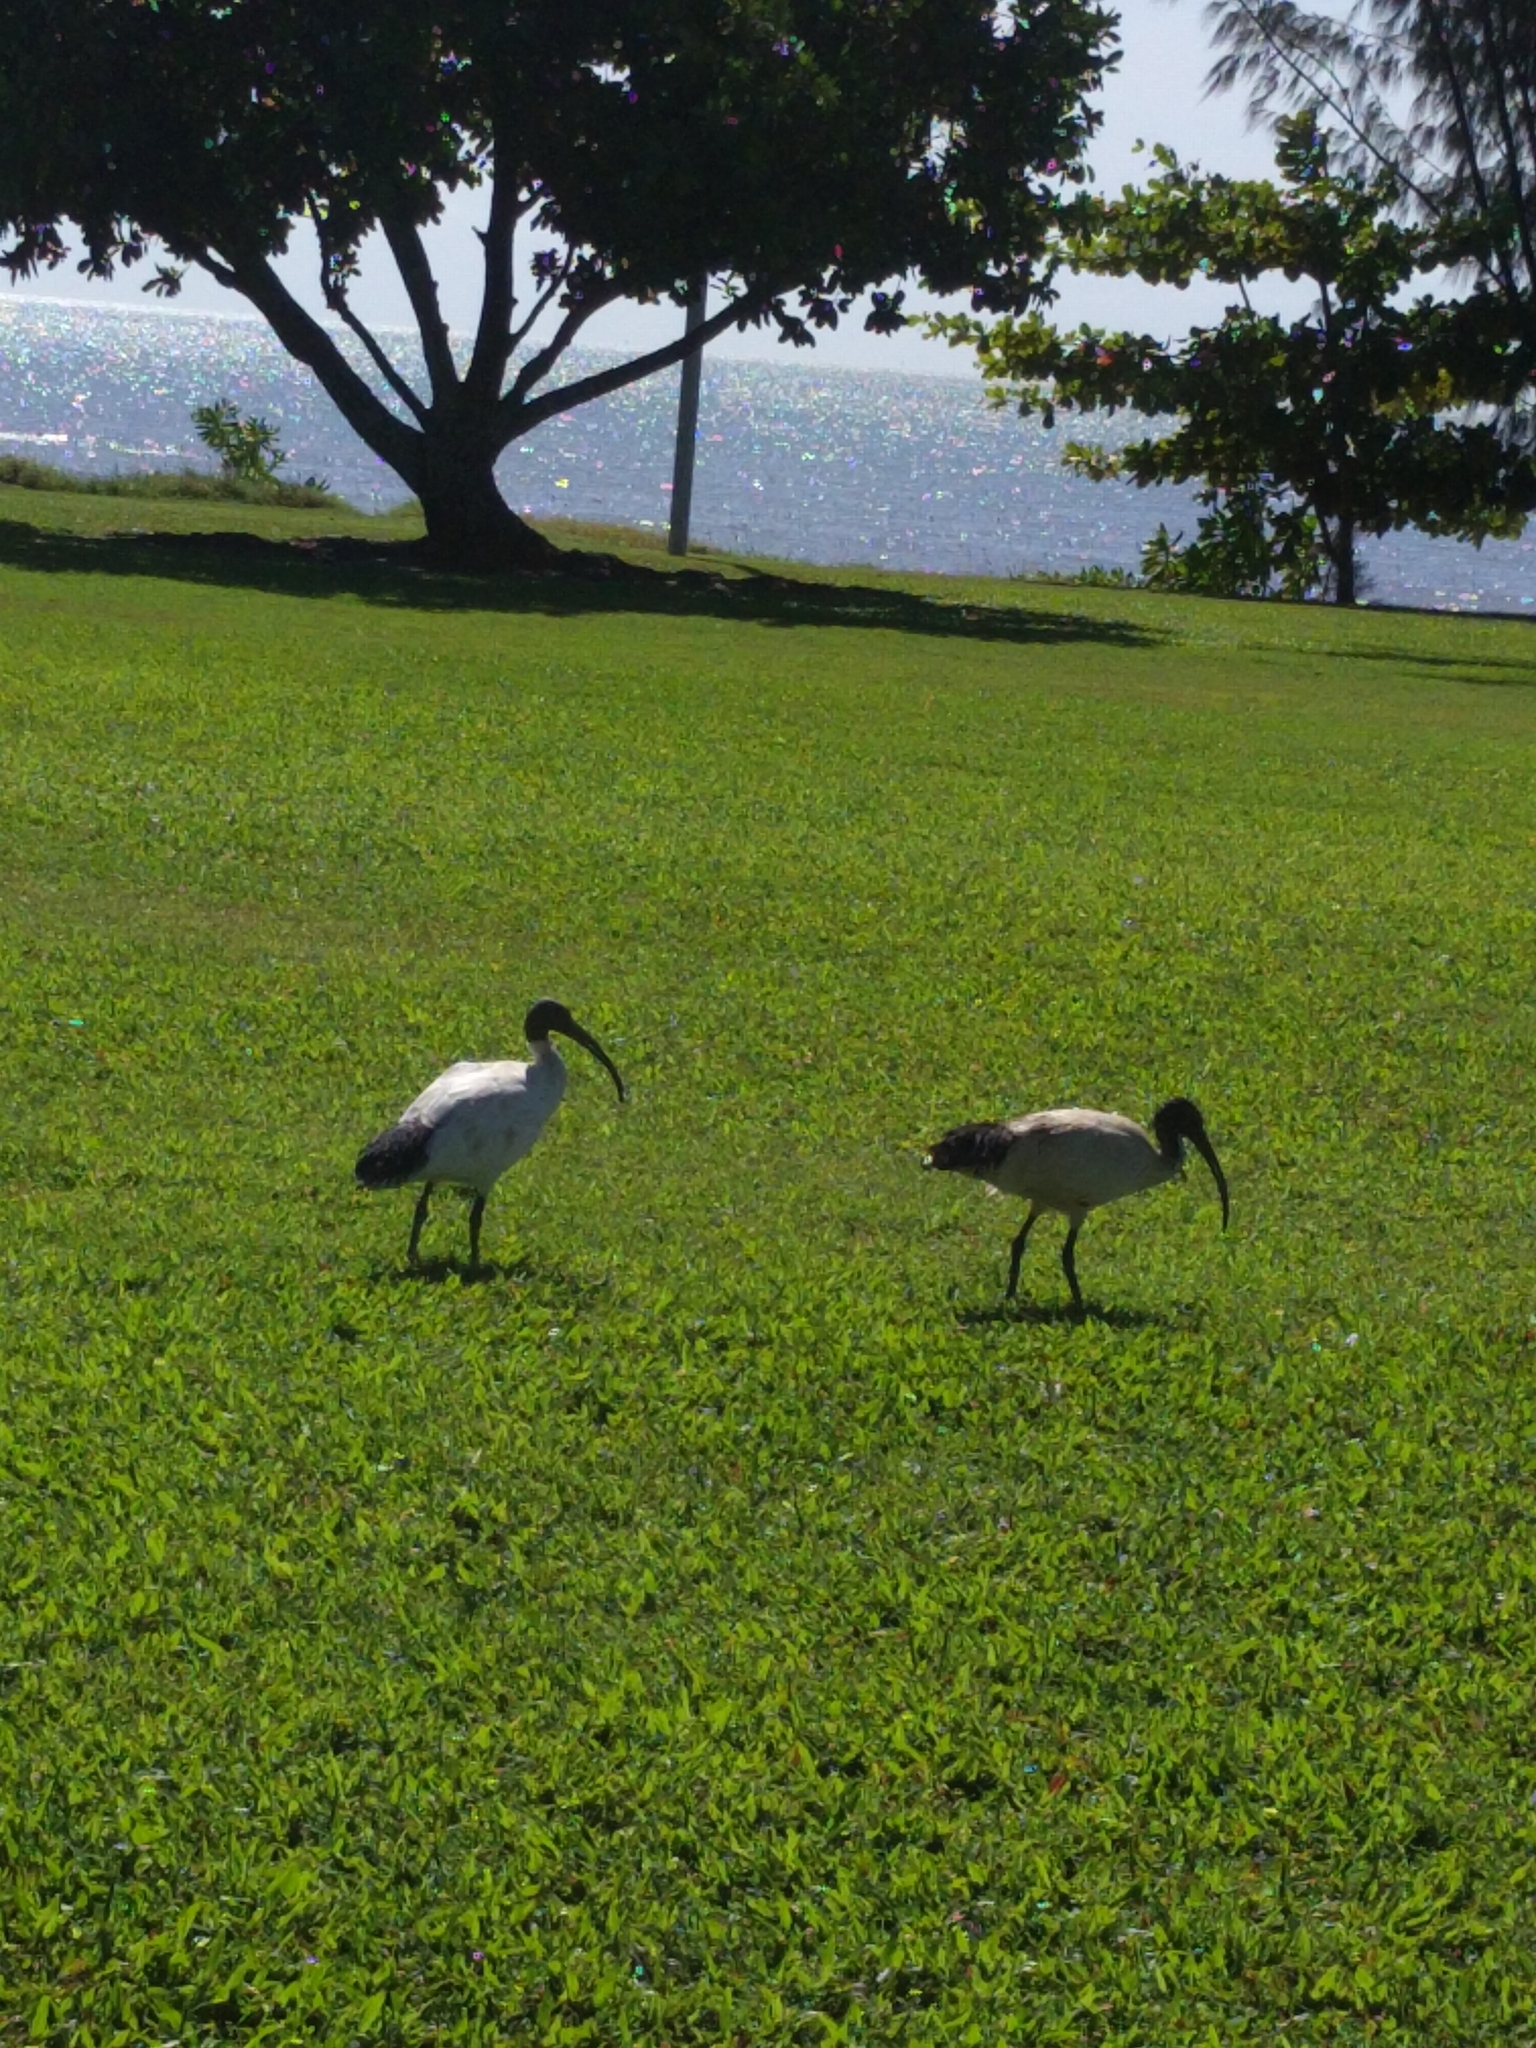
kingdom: Animalia
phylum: Chordata
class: Aves
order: Pelecaniformes
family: Threskiornithidae
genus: Threskiornis
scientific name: Threskiornis molucca
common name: Australian white ibis
